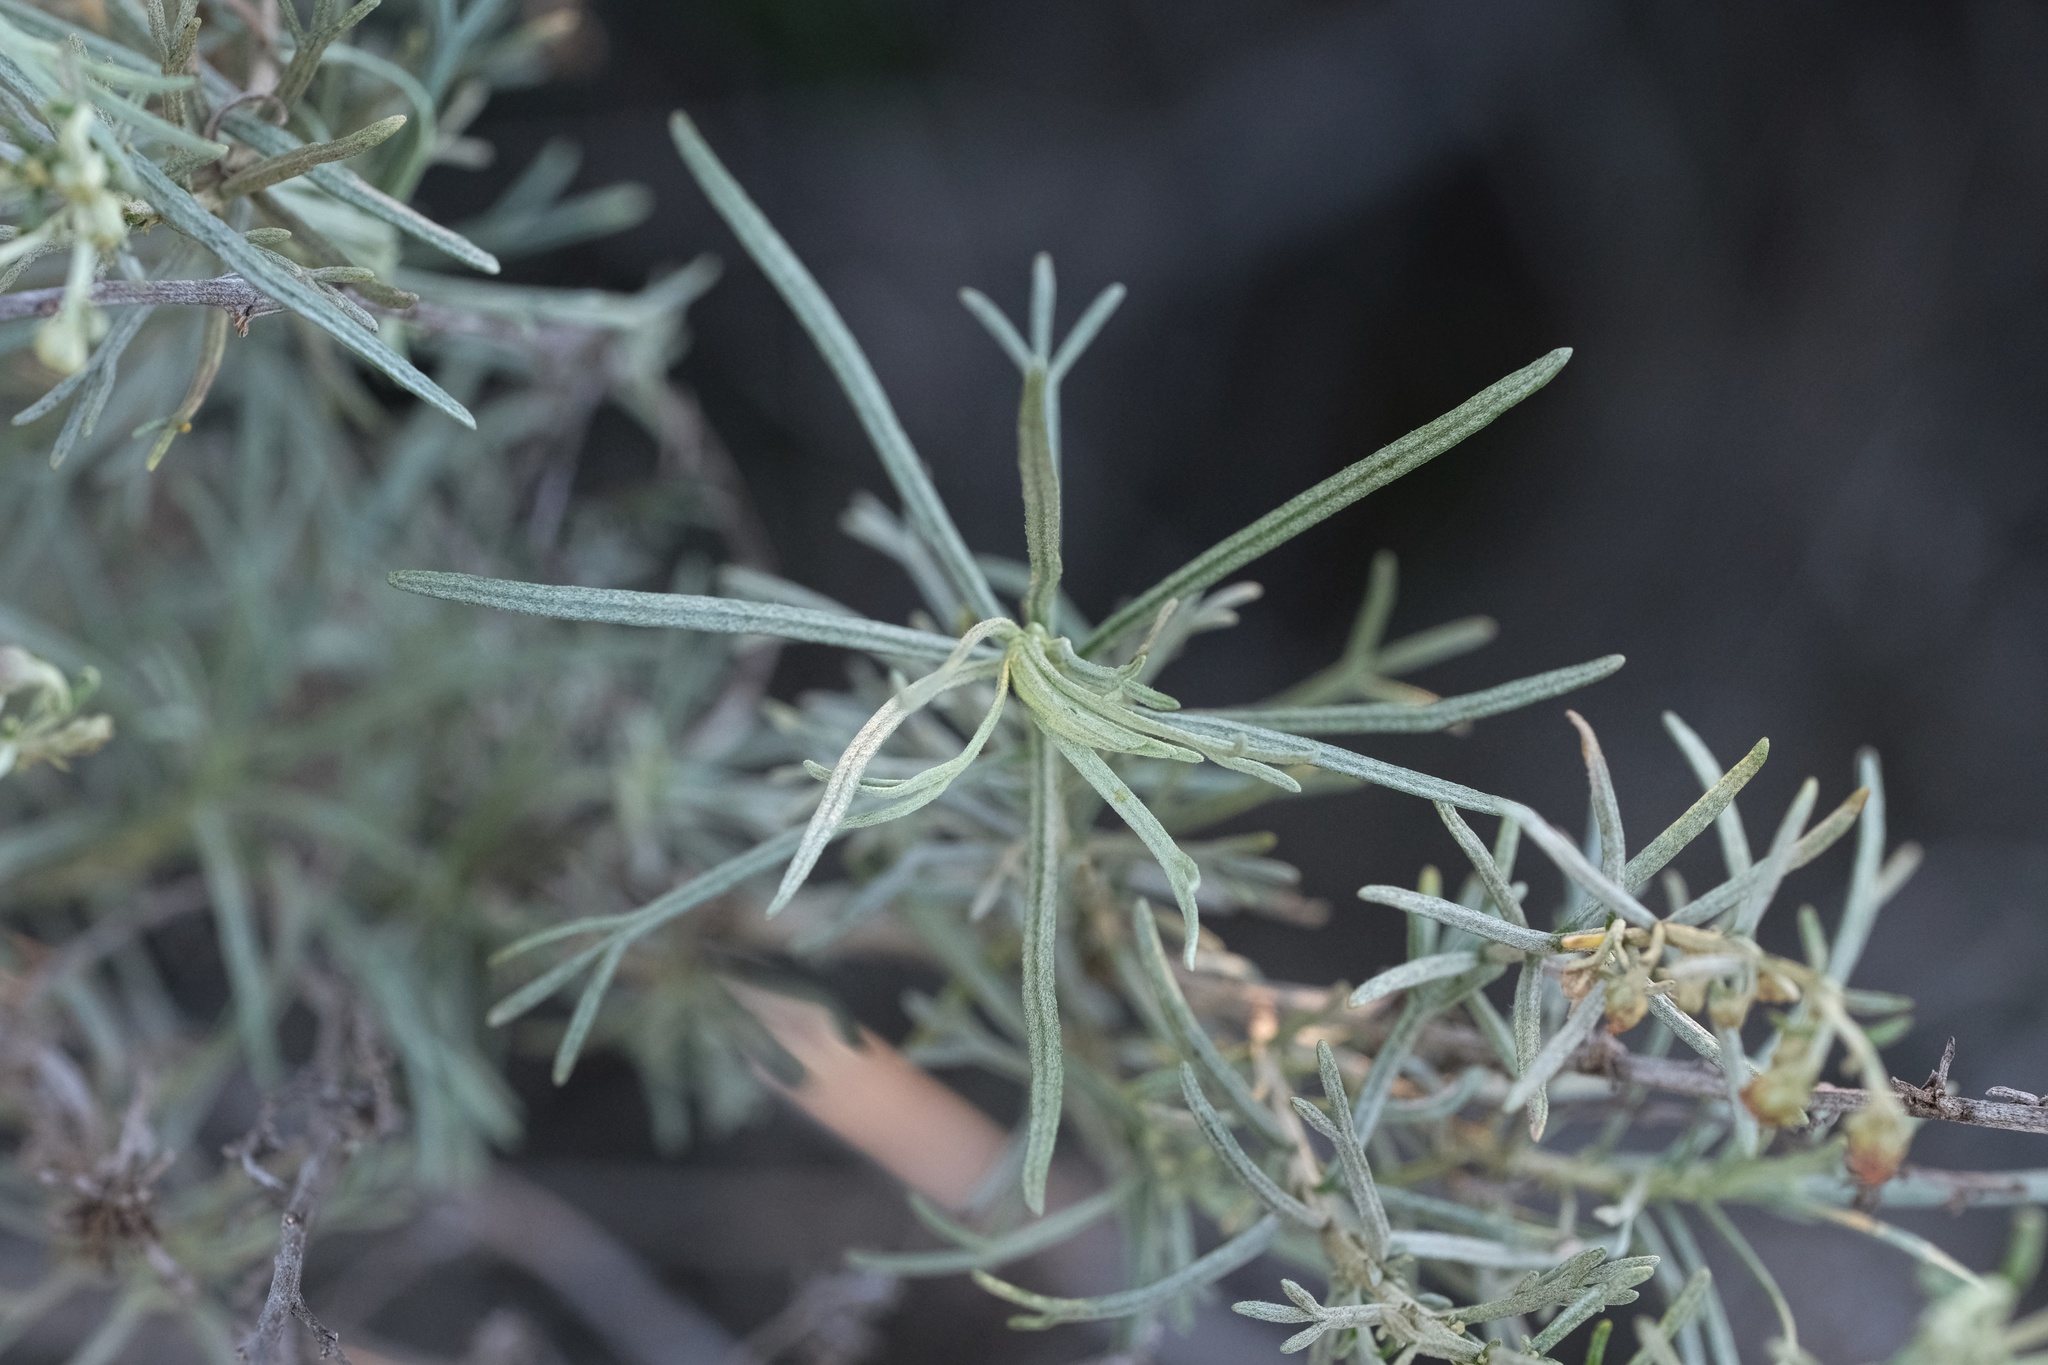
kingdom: Plantae
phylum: Tracheophyta
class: Magnoliopsida
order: Asterales
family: Asteraceae
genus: Artemisia
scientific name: Artemisia californica
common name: California sagebrush
